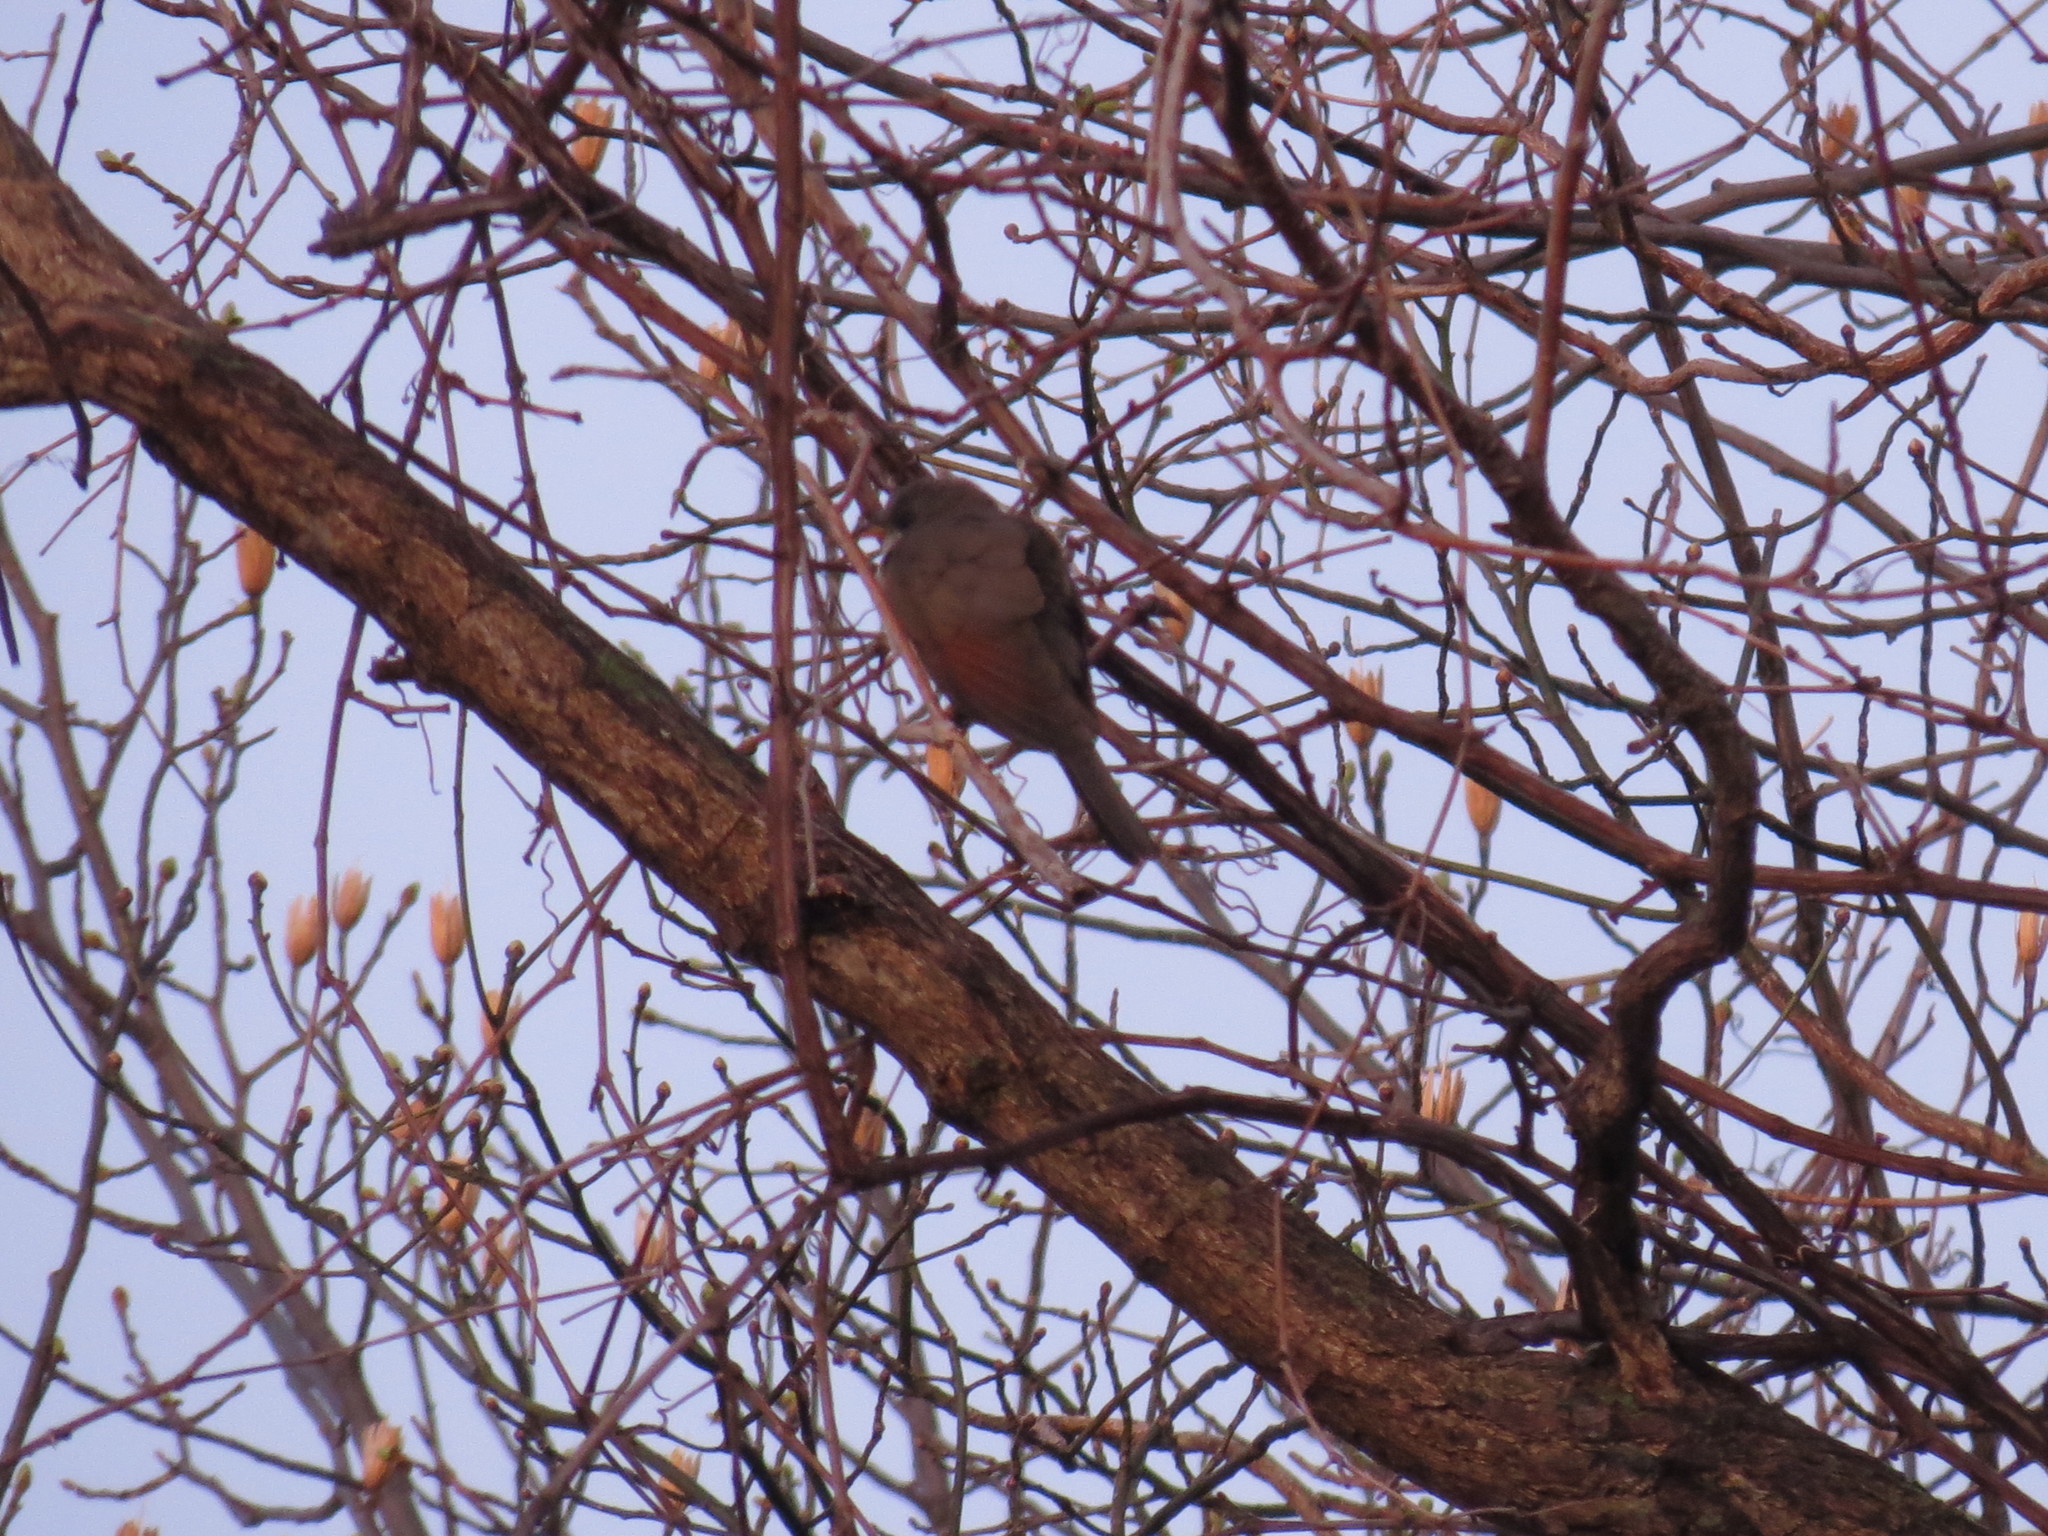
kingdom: Animalia
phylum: Chordata
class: Aves
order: Cuculiformes
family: Cuculidae
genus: Coccyzus
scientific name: Coccyzus americanus
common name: Yellow-billed cuckoo
